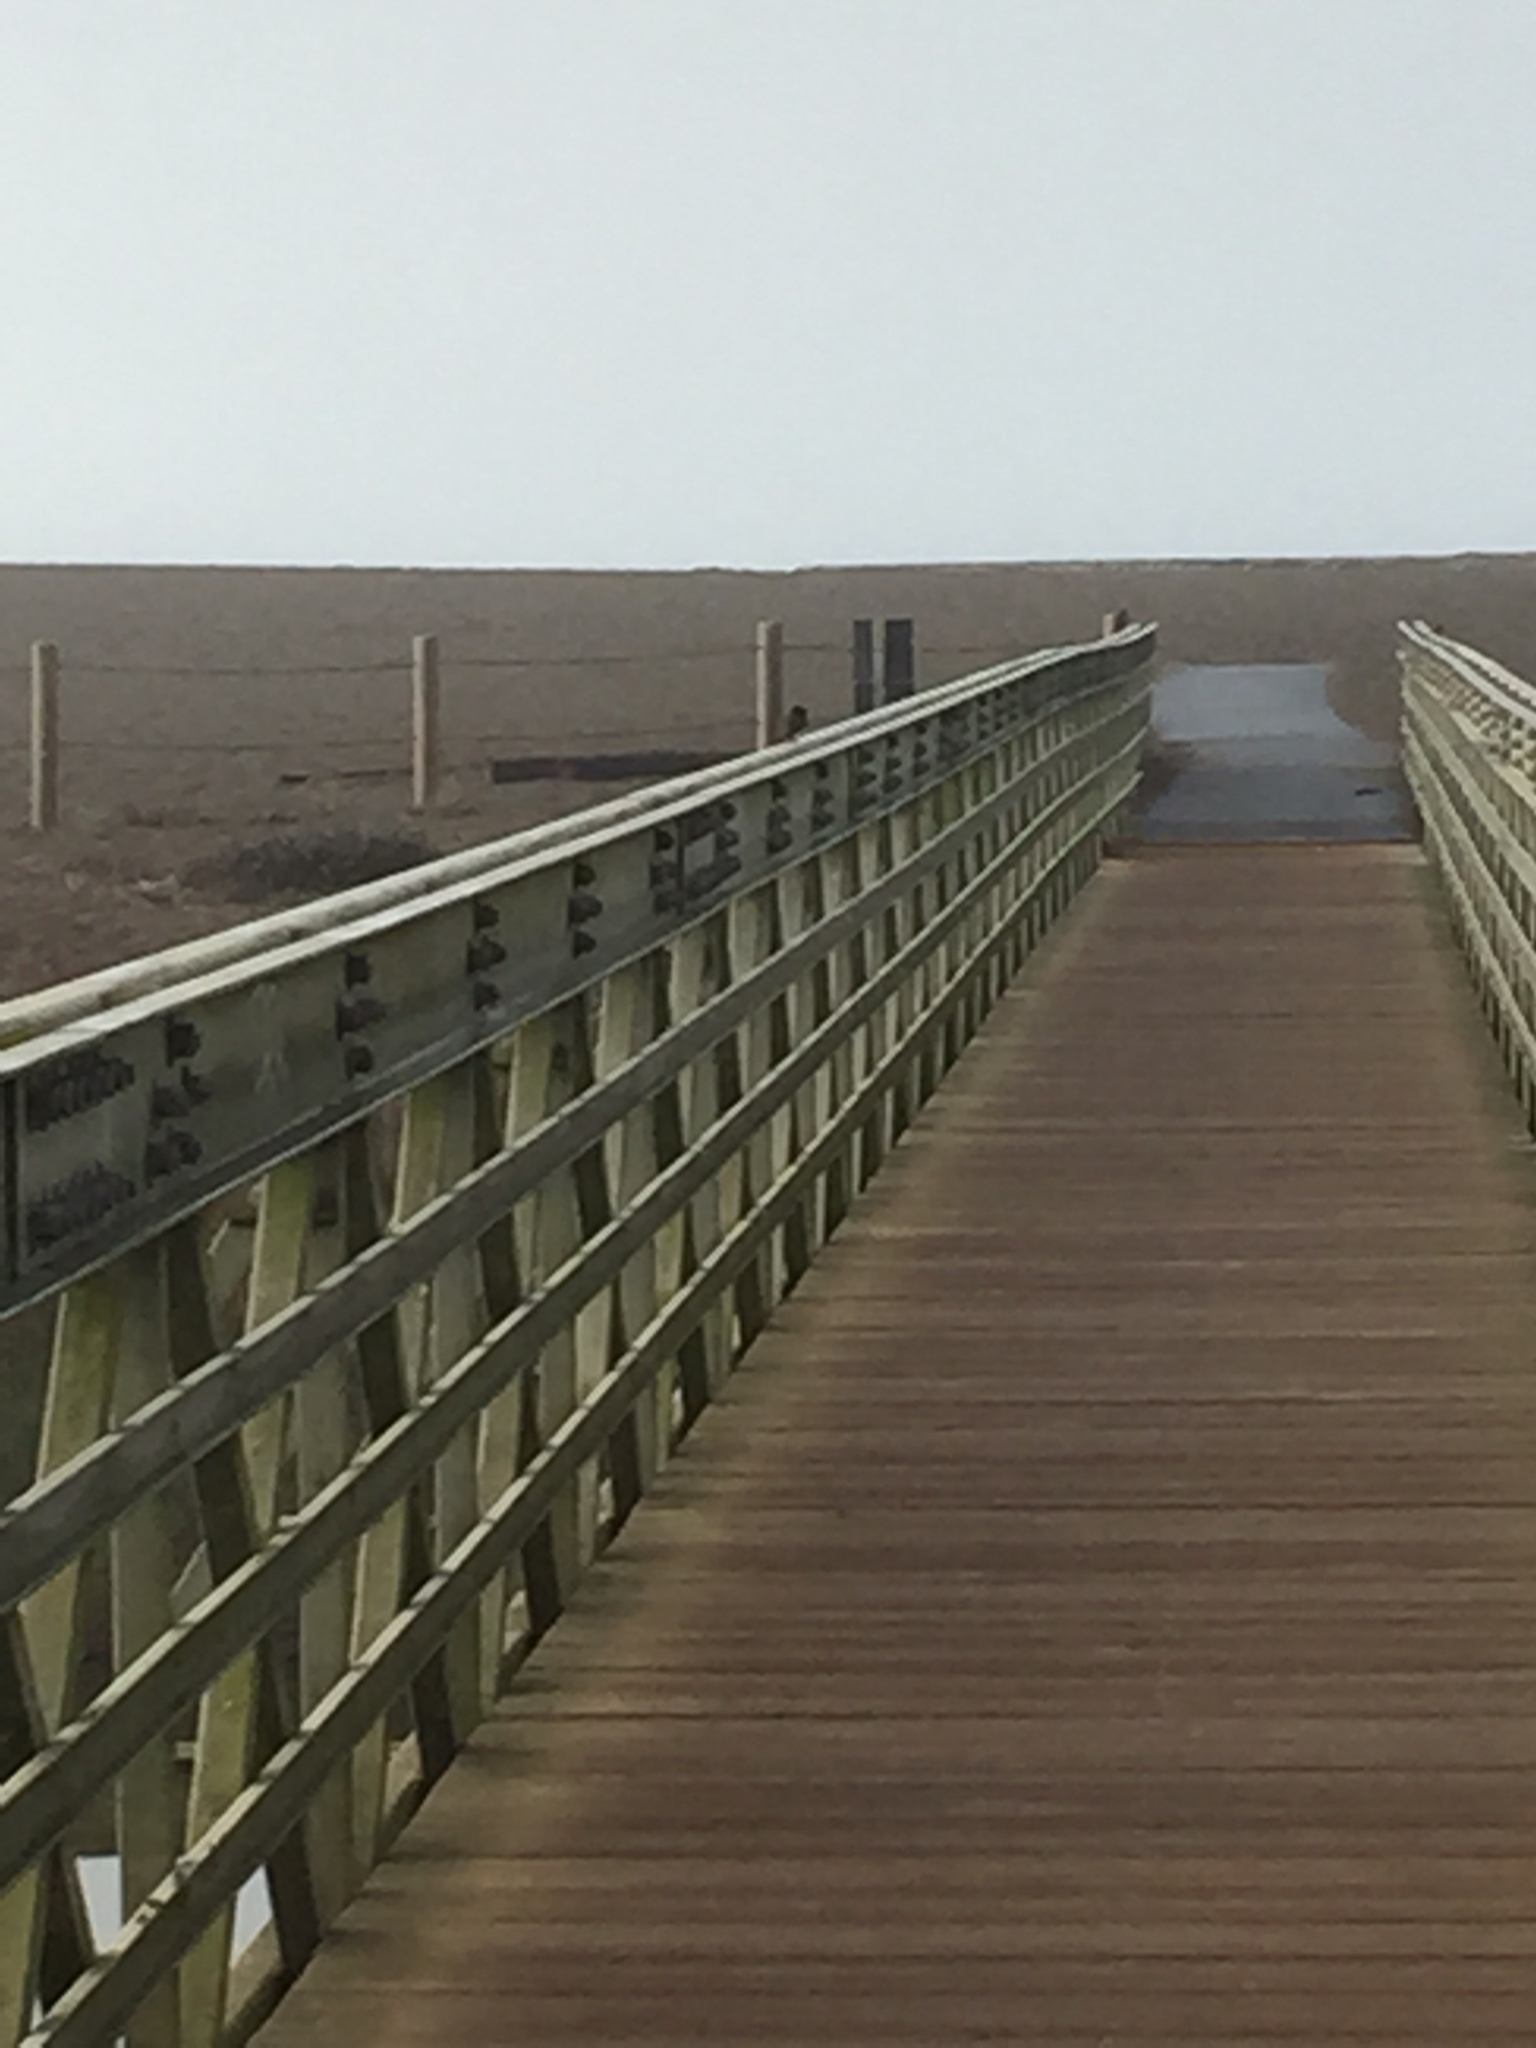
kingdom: Animalia
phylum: Chordata
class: Aves
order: Passeriformes
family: Tyrannidae
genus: Sayornis
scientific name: Sayornis nigricans
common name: Black phoebe
